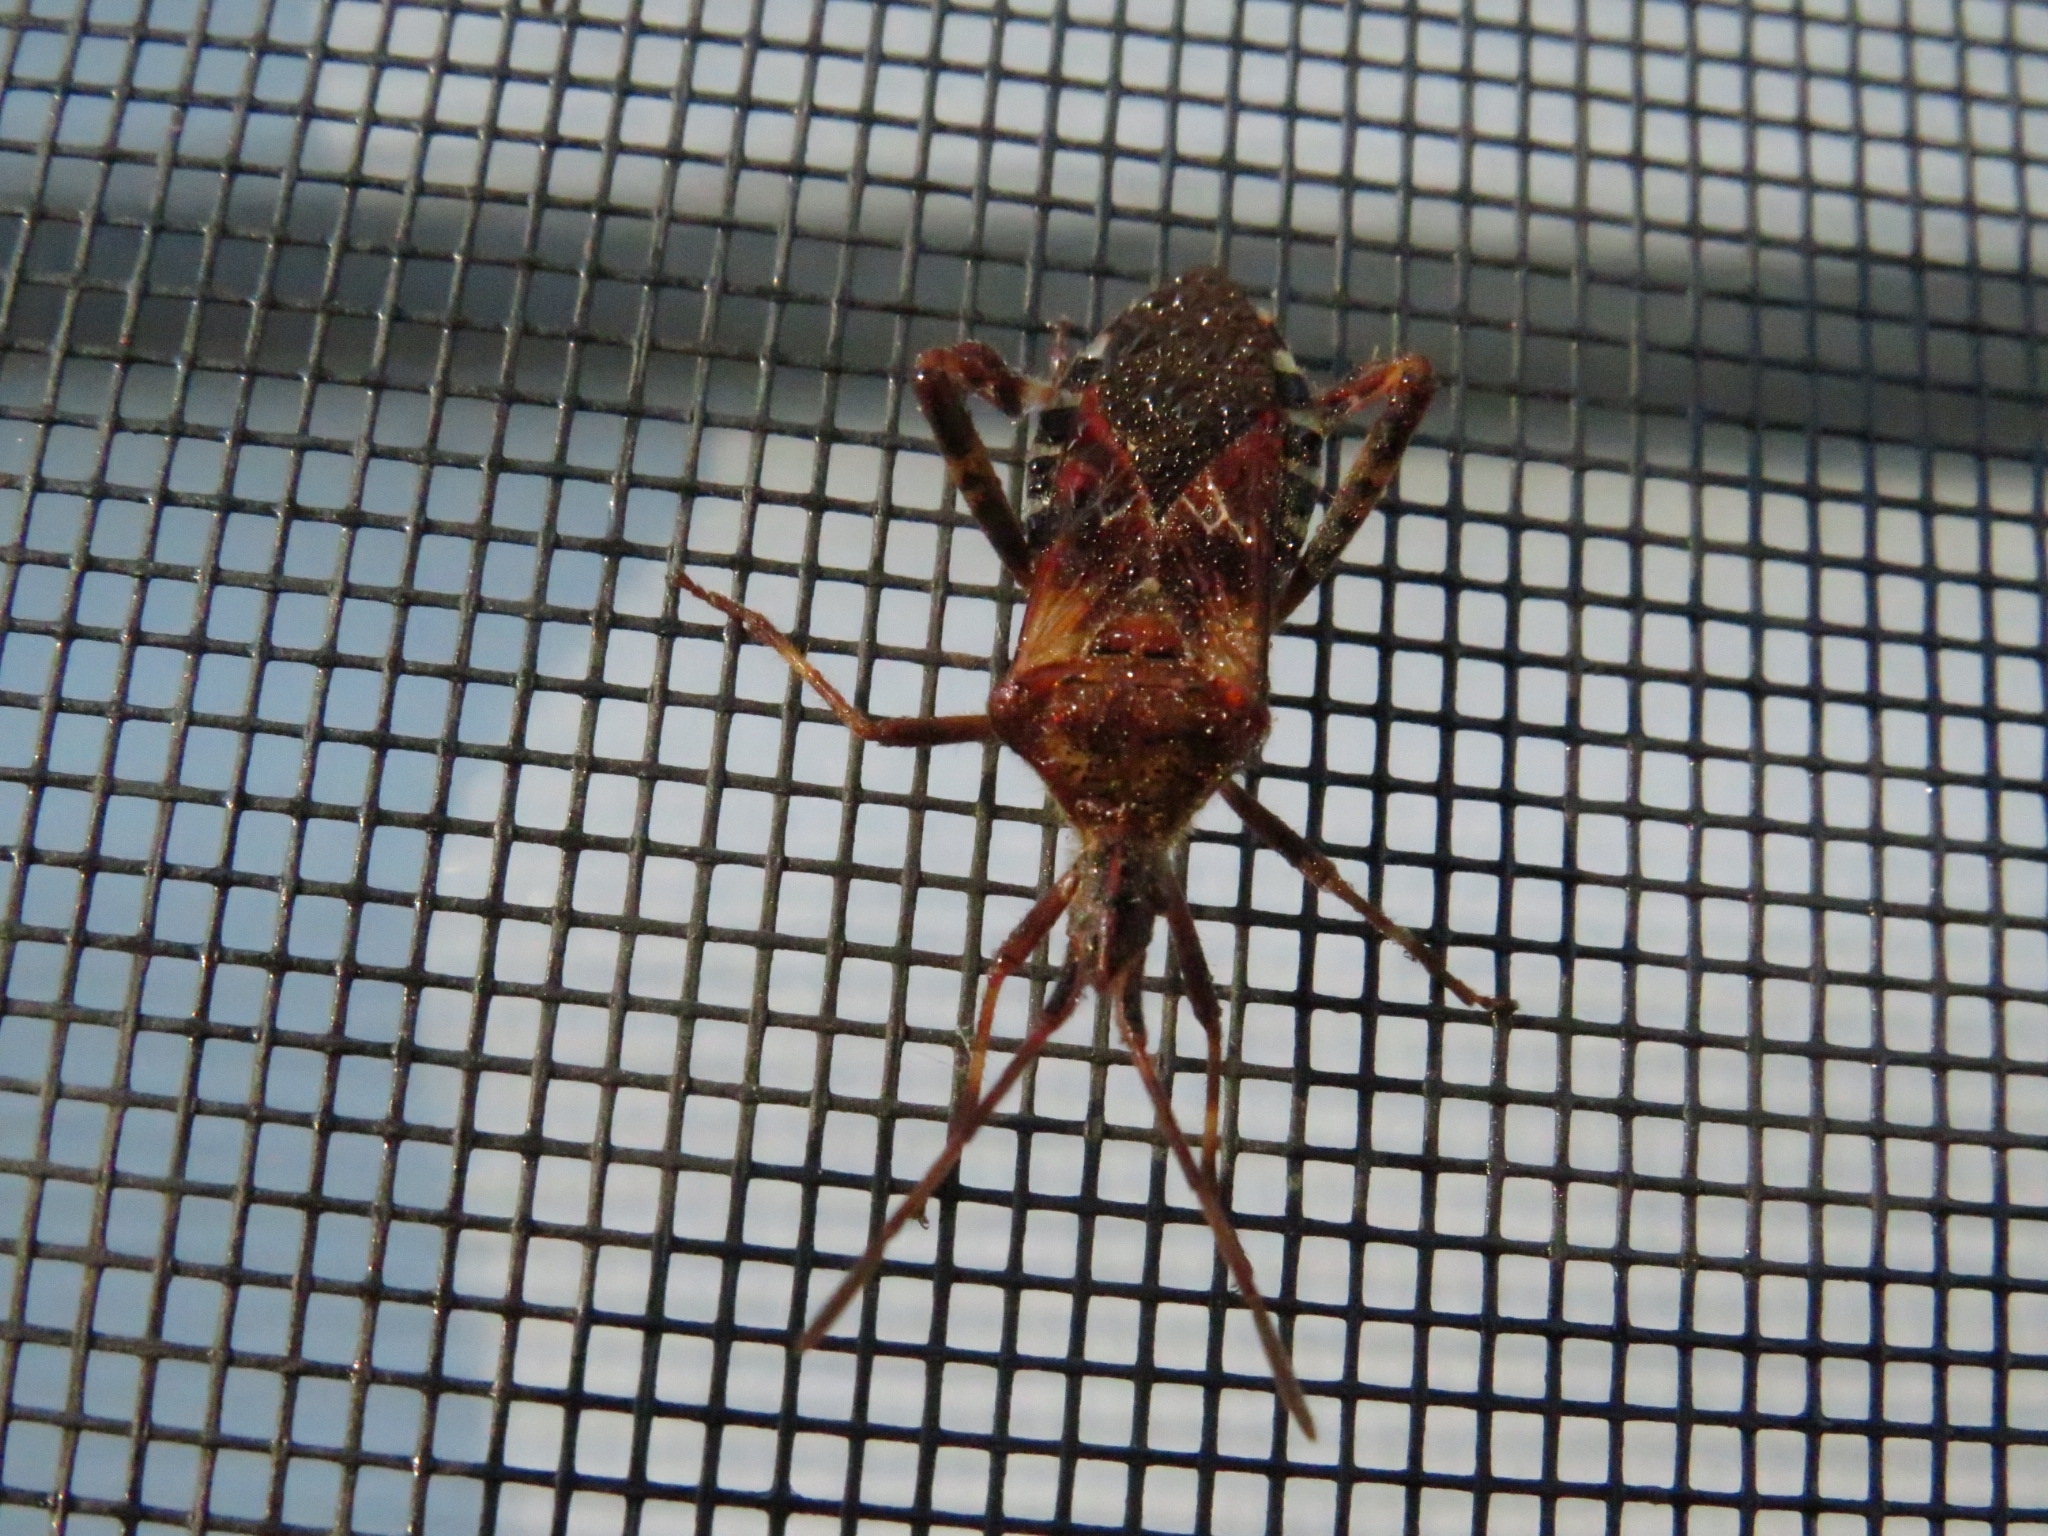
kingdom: Animalia
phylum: Arthropoda
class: Insecta
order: Hemiptera
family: Coreidae
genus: Leptoglossus
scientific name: Leptoglossus occidentalis
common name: Western conifer-seed bug
